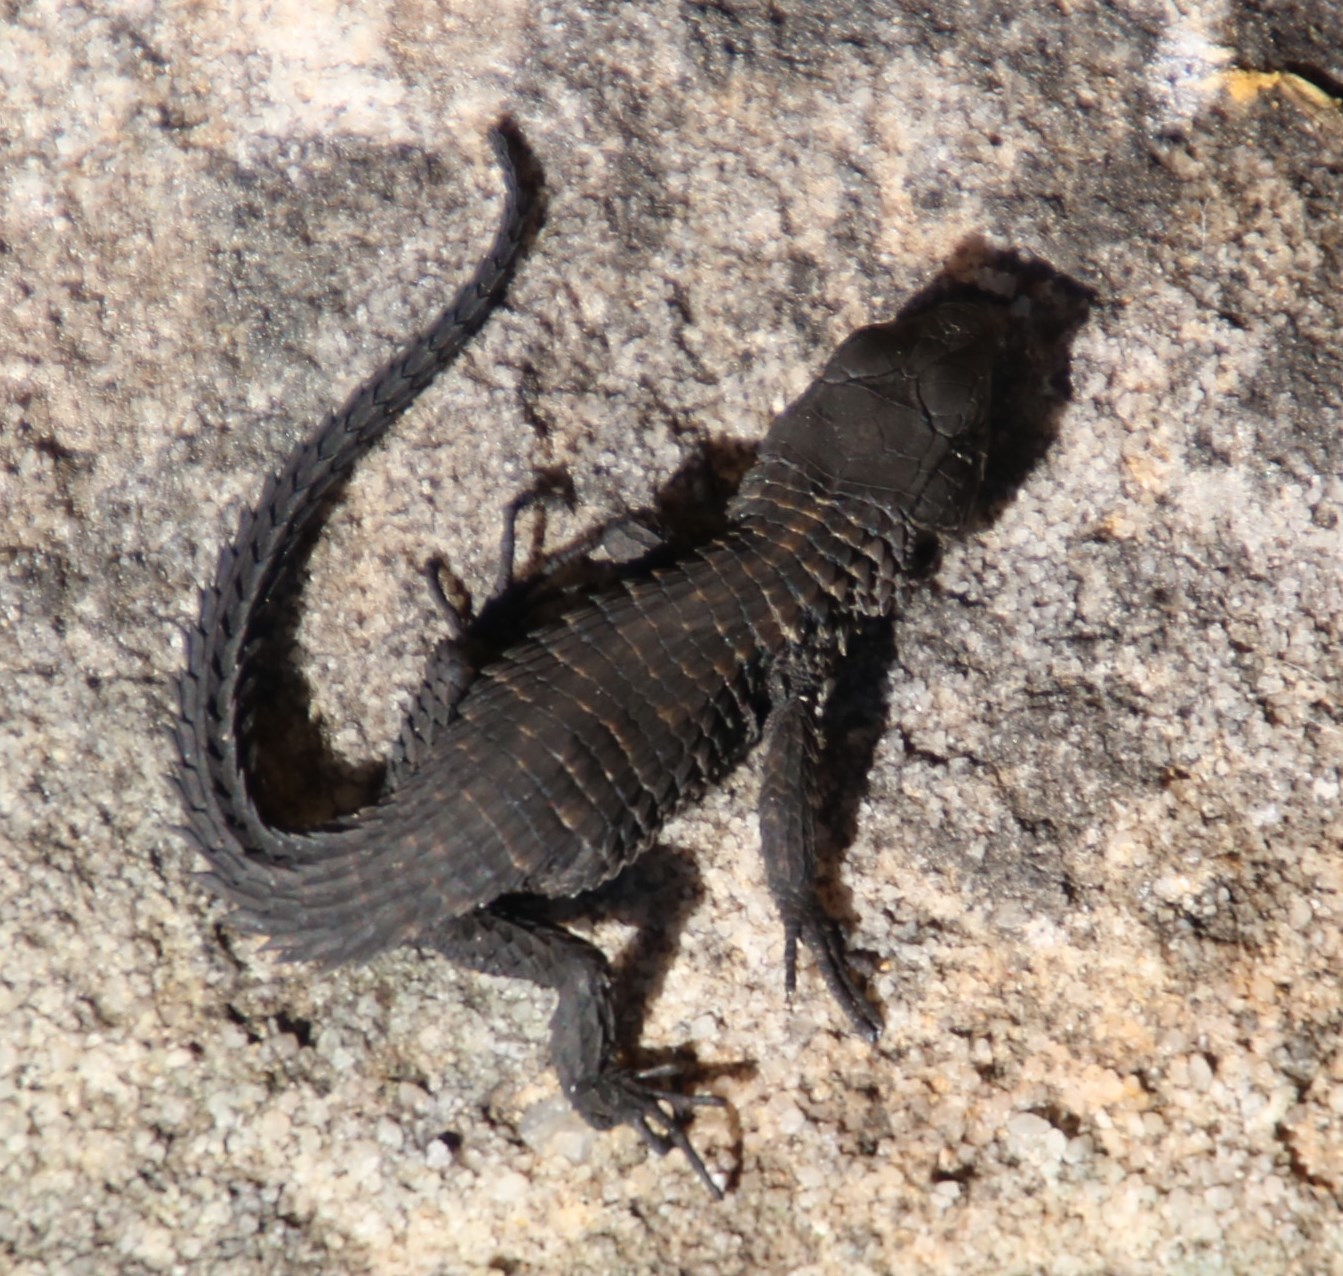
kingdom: Animalia
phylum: Chordata
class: Squamata
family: Cordylidae
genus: Cordylus
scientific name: Cordylus niger
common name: Black girdled lizard
